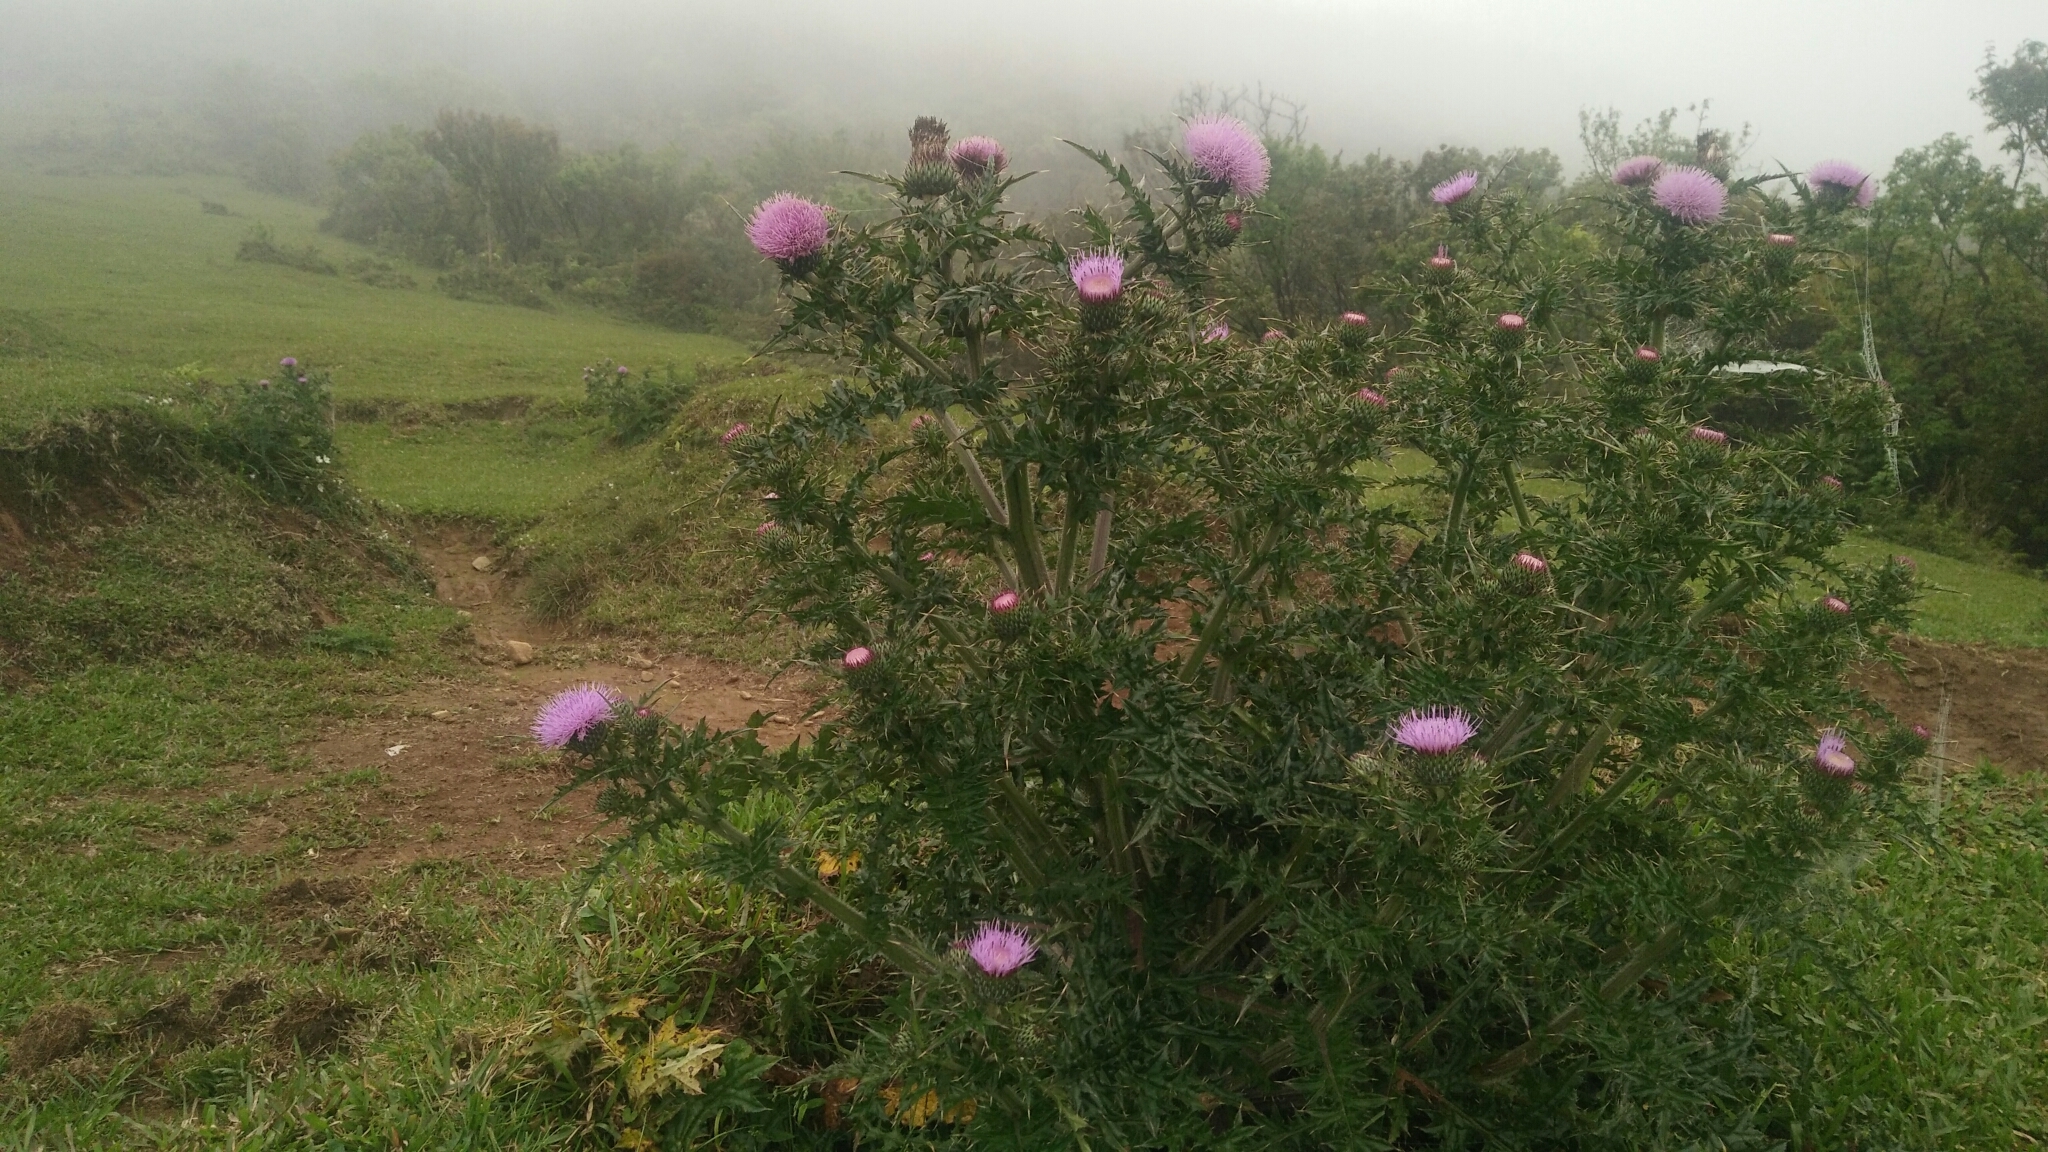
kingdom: Plantae
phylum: Tracheophyta
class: Magnoliopsida
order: Asterales
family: Asteraceae
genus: Cirsium
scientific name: Cirsium japonicum
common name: Japanese thistle
